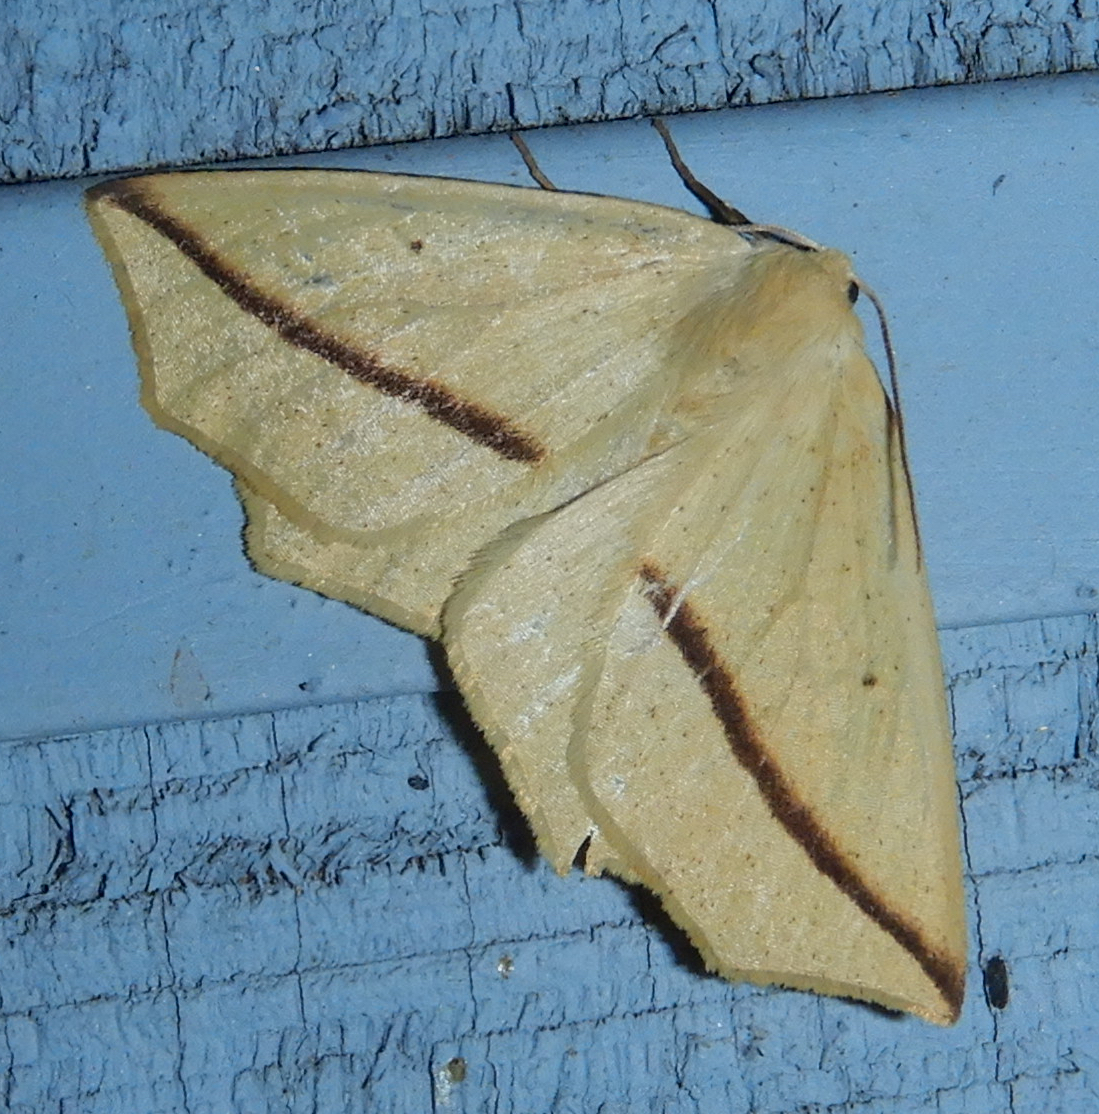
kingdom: Animalia
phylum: Arthropoda
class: Insecta
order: Lepidoptera
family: Geometridae
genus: Tetracis
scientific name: Tetracis crocallata
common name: Yellow slant-line
